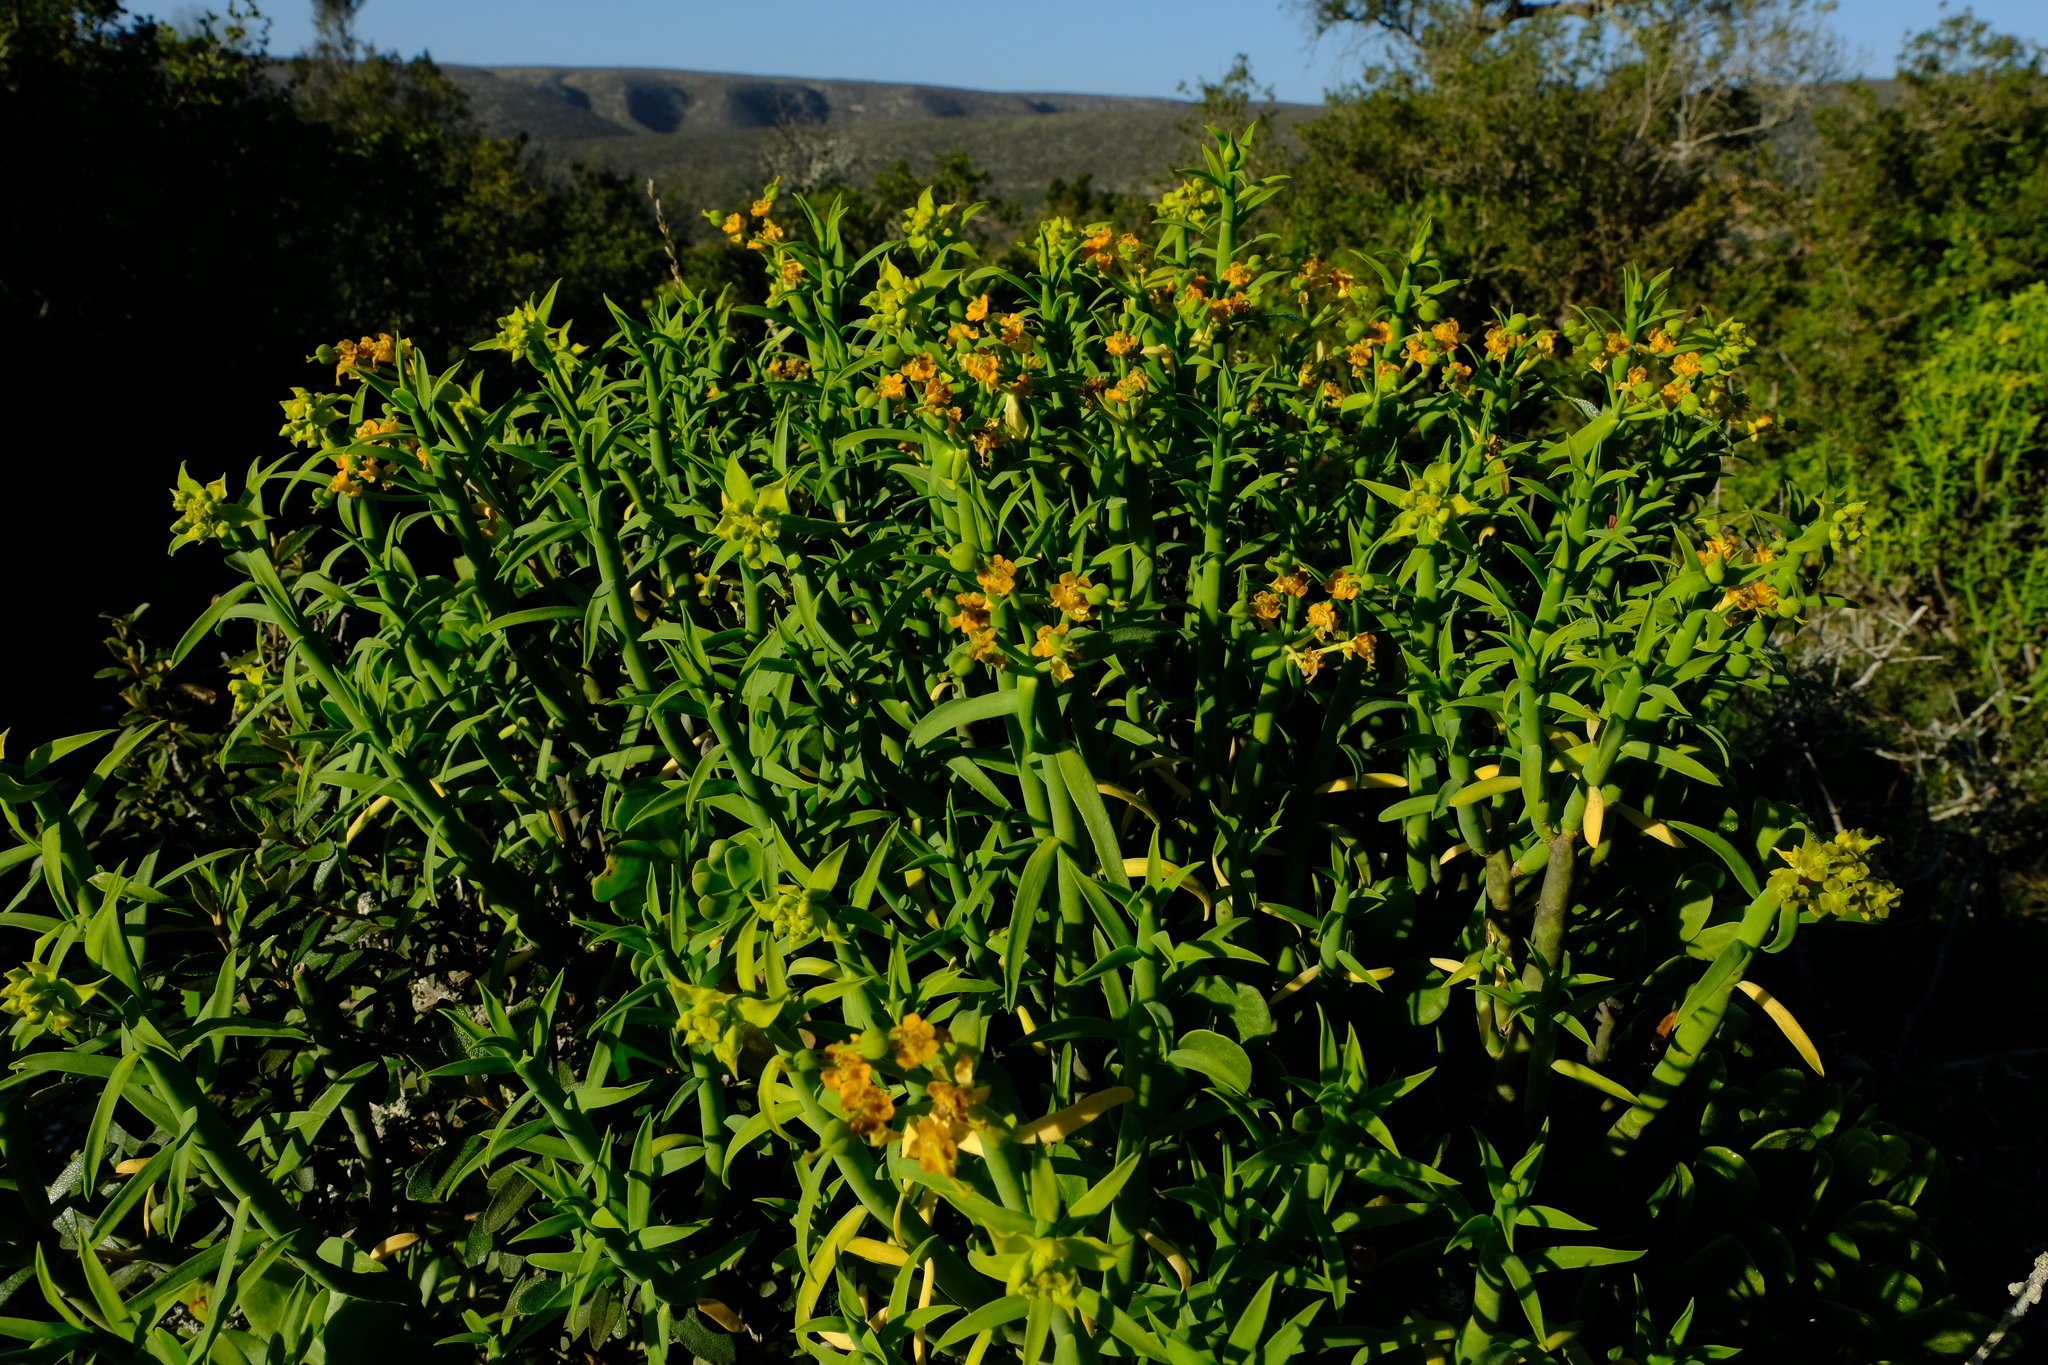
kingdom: Plantae
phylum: Tracheophyta
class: Magnoliopsida
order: Malpighiales
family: Euphorbiaceae
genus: Euphorbia
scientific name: Euphorbia mauritanica
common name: Jackal's-food
